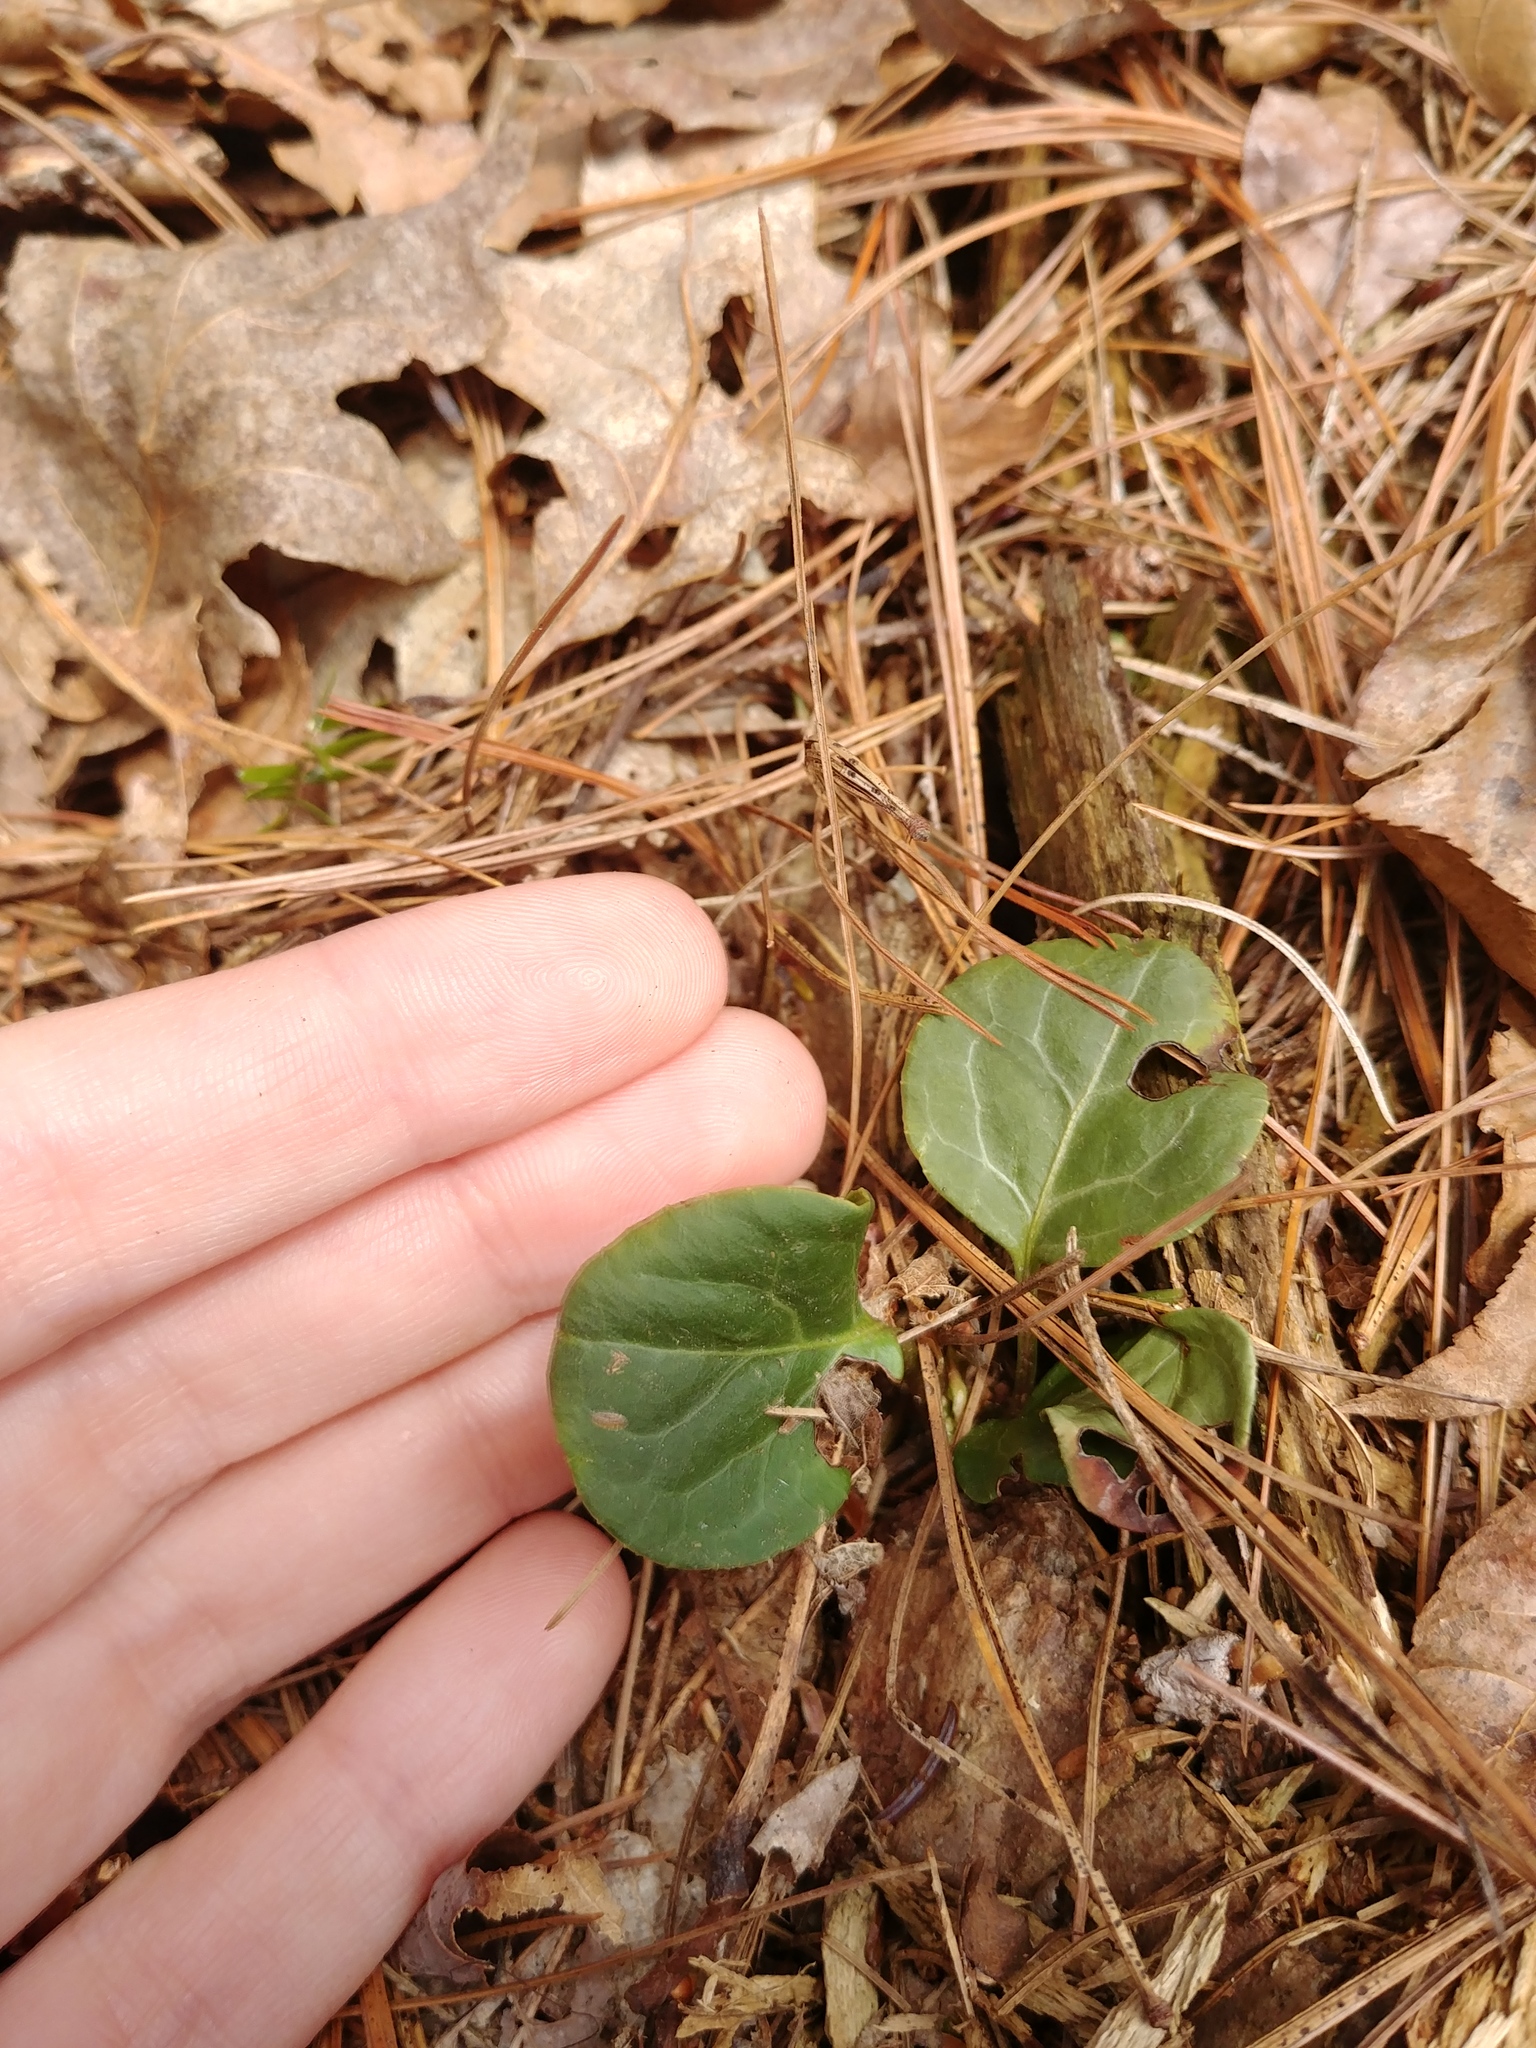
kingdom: Plantae
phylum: Tracheophyta
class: Magnoliopsida
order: Ericales
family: Ericaceae
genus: Pyrola
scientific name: Pyrola americana
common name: American wintergreen
